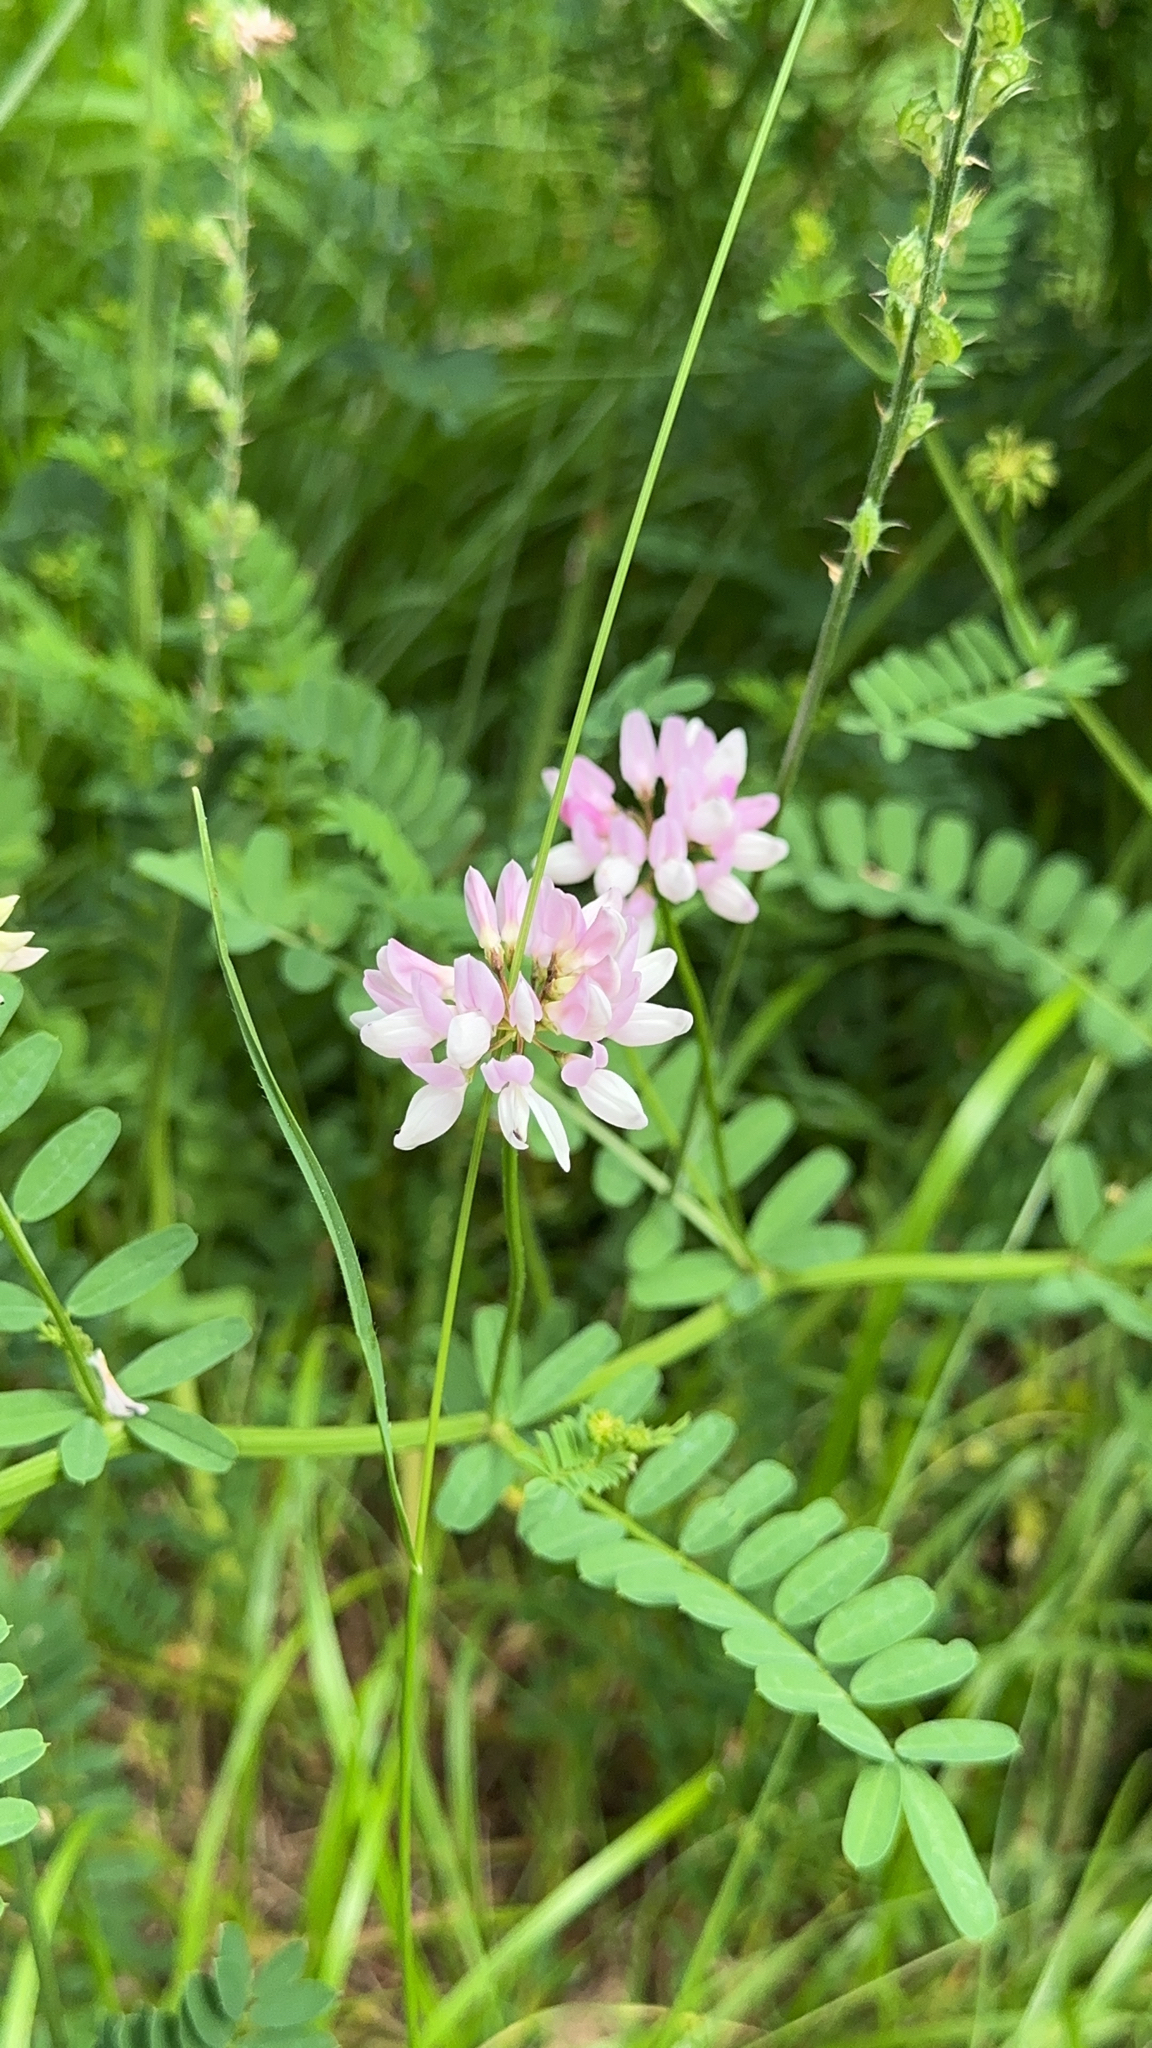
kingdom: Plantae
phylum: Tracheophyta
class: Magnoliopsida
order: Fabales
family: Fabaceae
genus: Coronilla
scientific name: Coronilla varia
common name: Crownvetch
